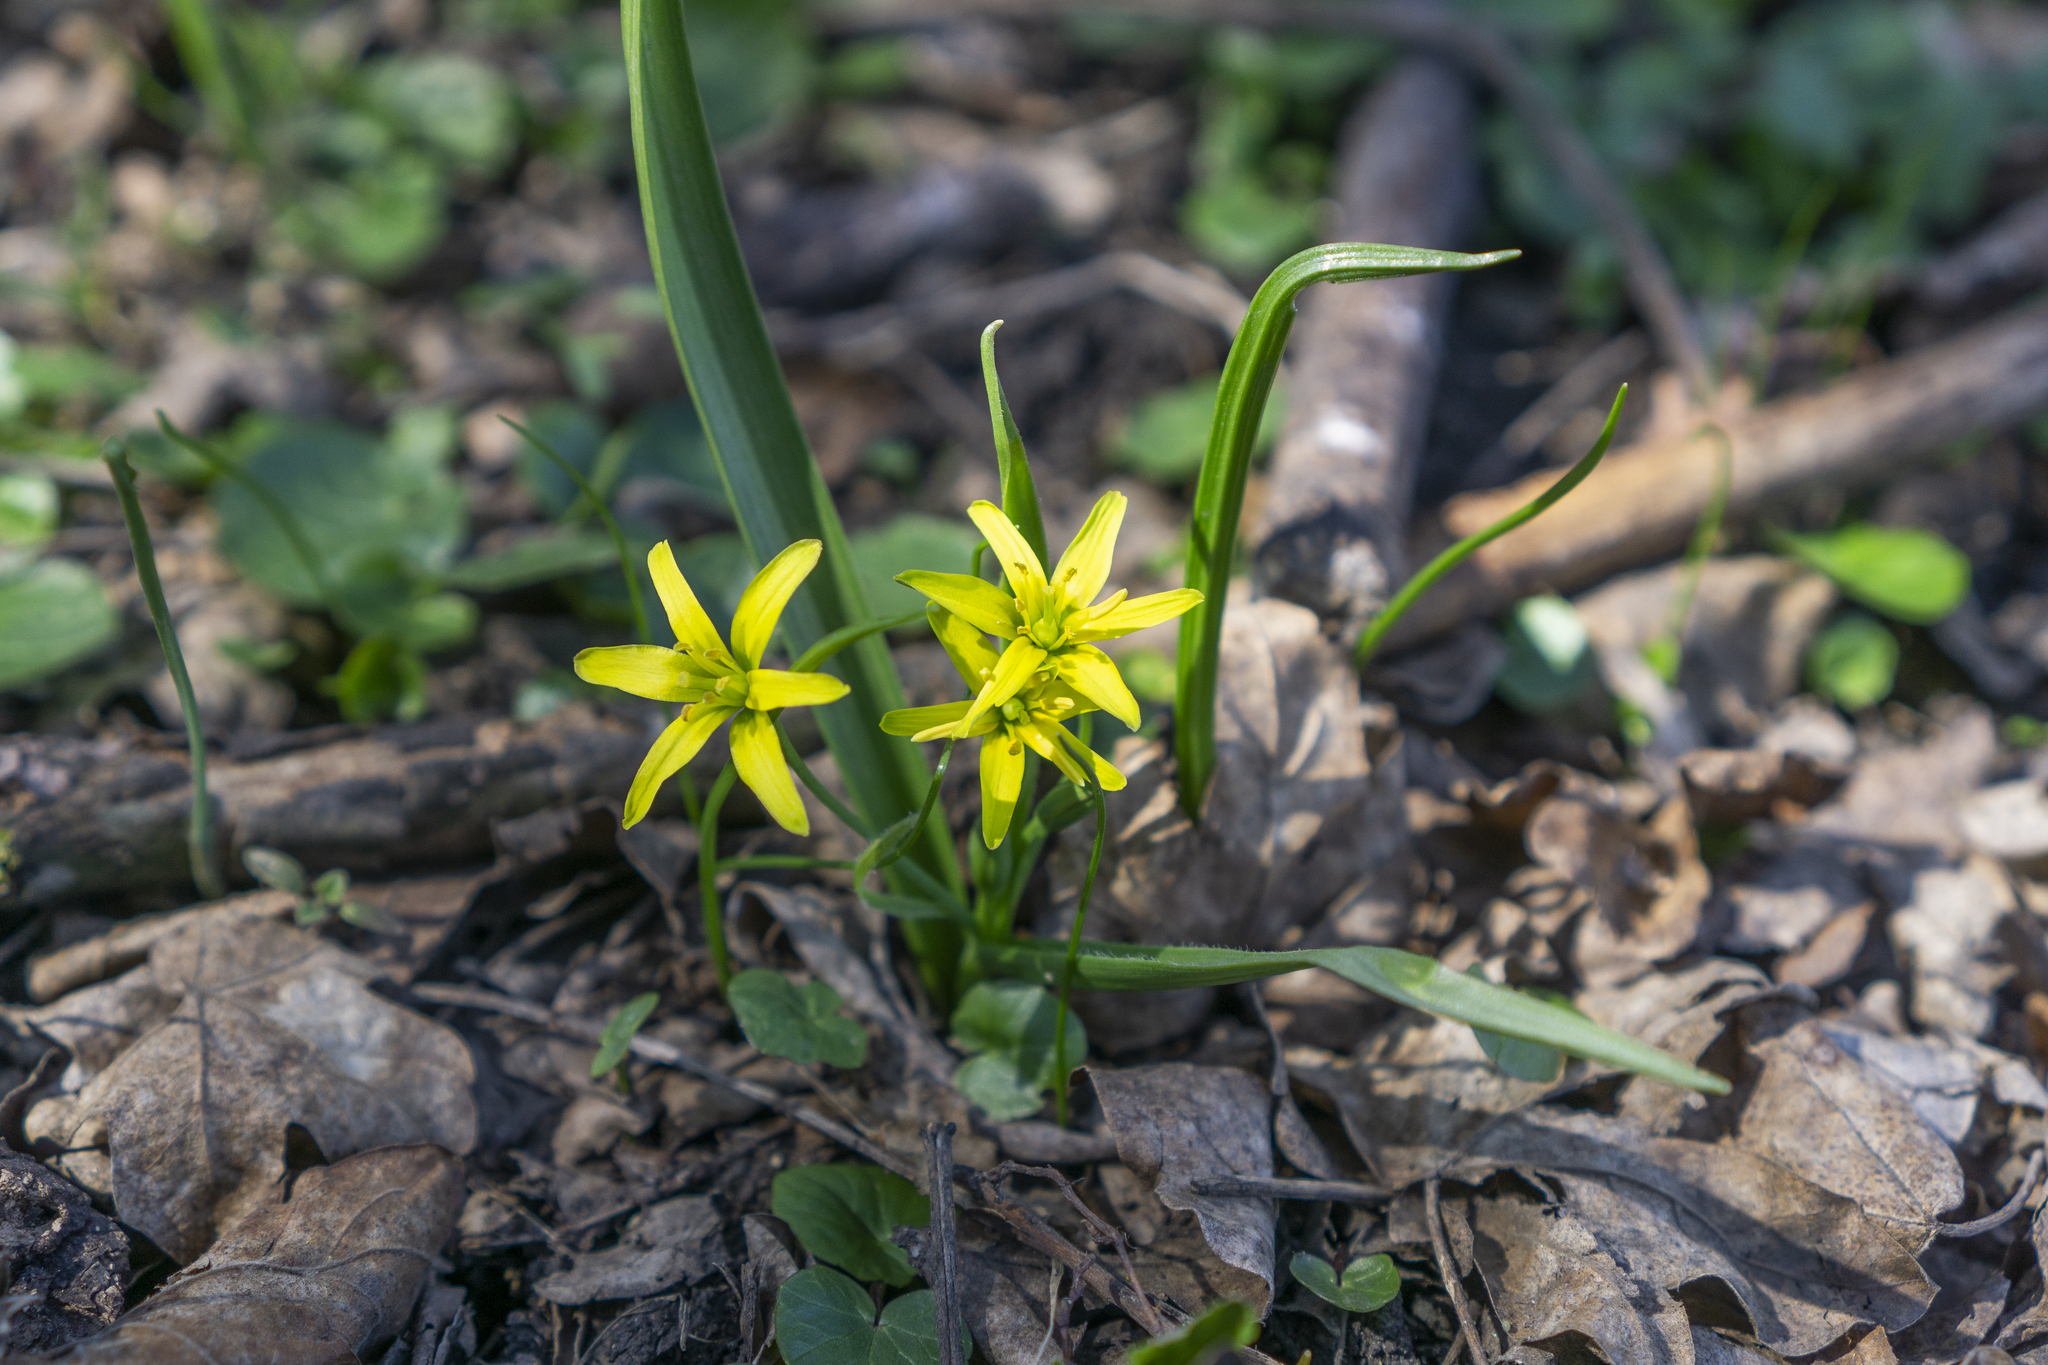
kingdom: Plantae
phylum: Tracheophyta
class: Liliopsida
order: Liliales
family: Liliaceae
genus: Gagea
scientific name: Gagea lutea
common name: Yellow star-of-bethlehem
